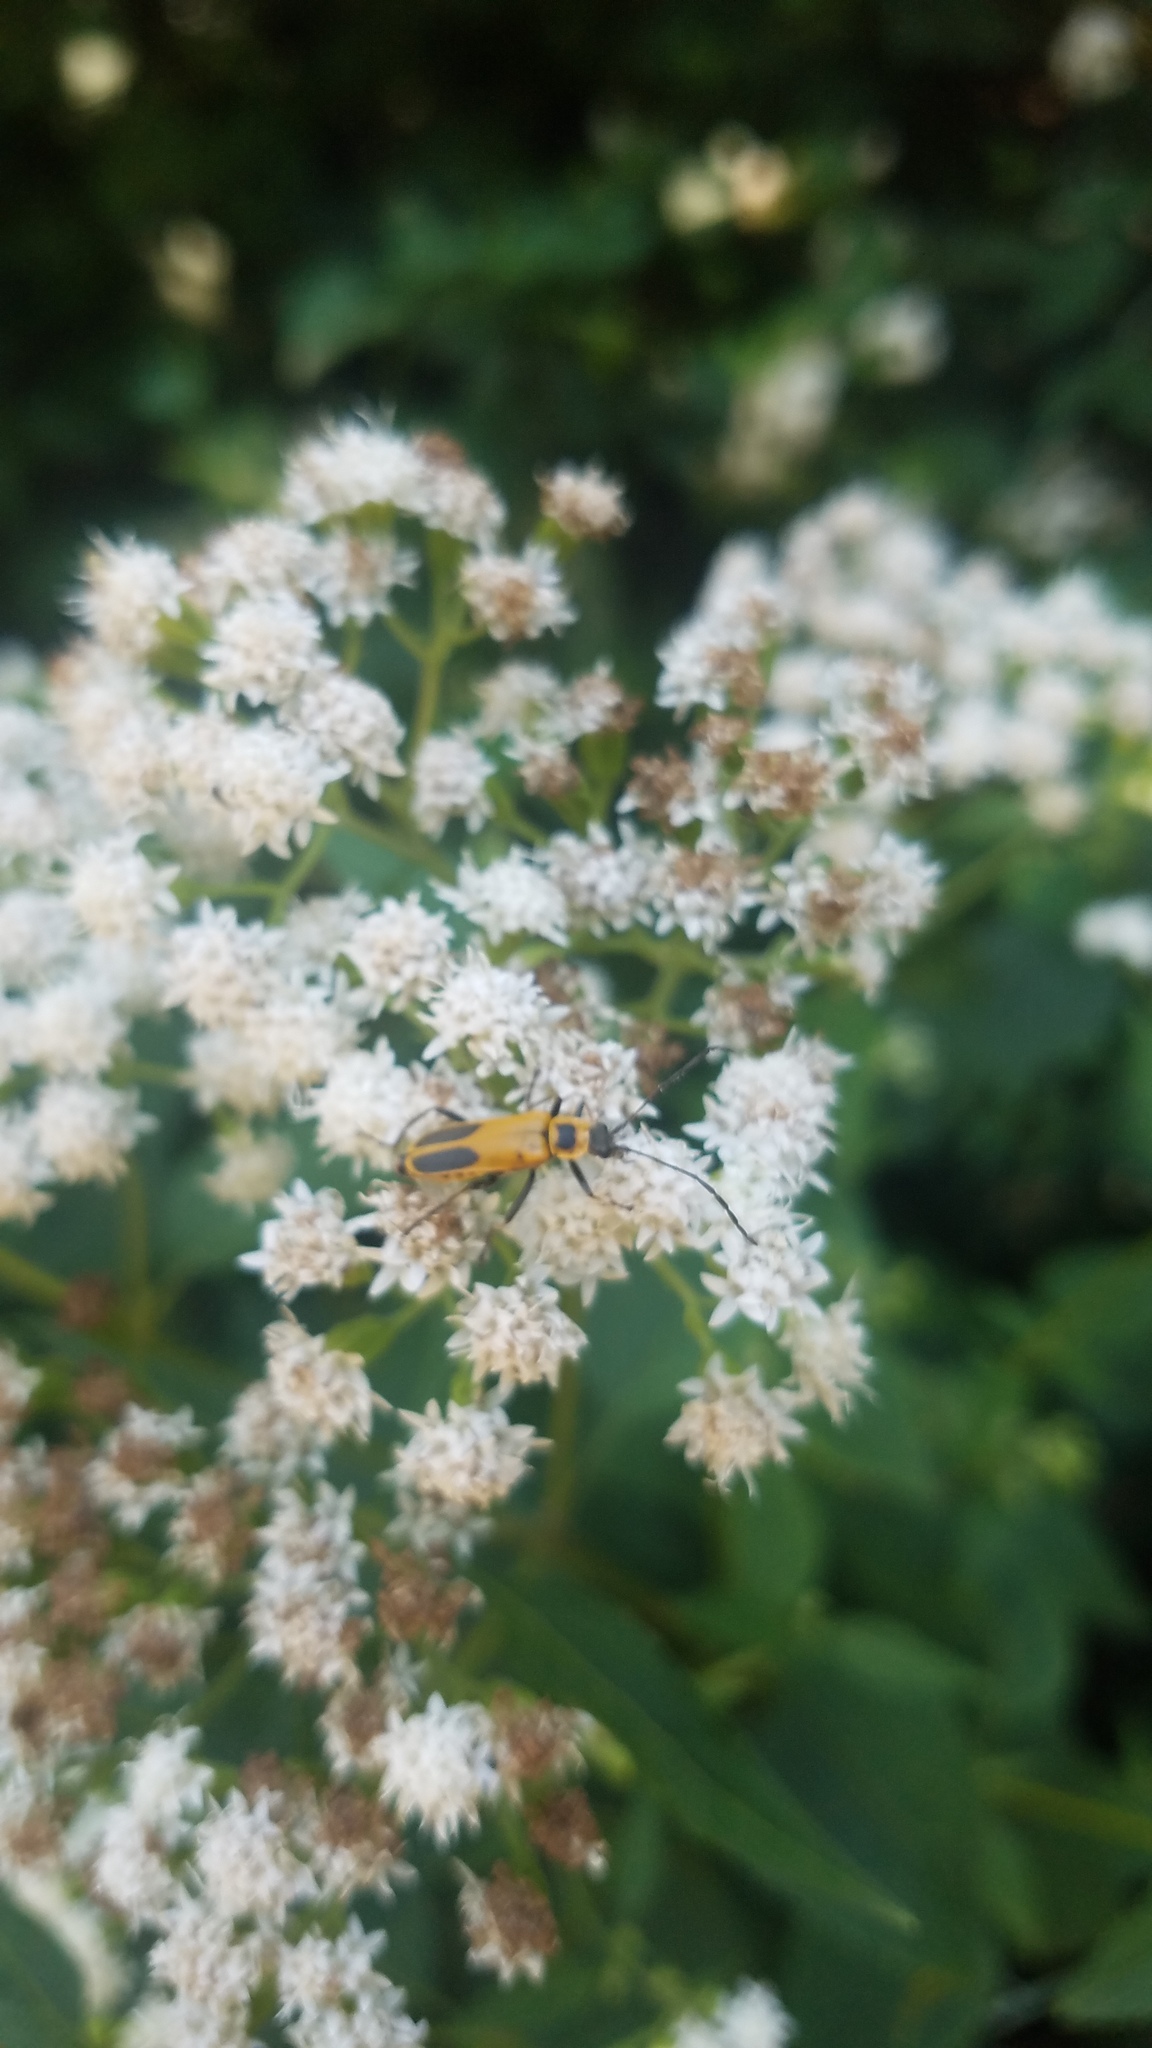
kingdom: Animalia
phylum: Arthropoda
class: Insecta
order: Coleoptera
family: Cantharidae
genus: Chauliognathus
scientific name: Chauliognathus pensylvanicus
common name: Goldenrod soldier beetle
